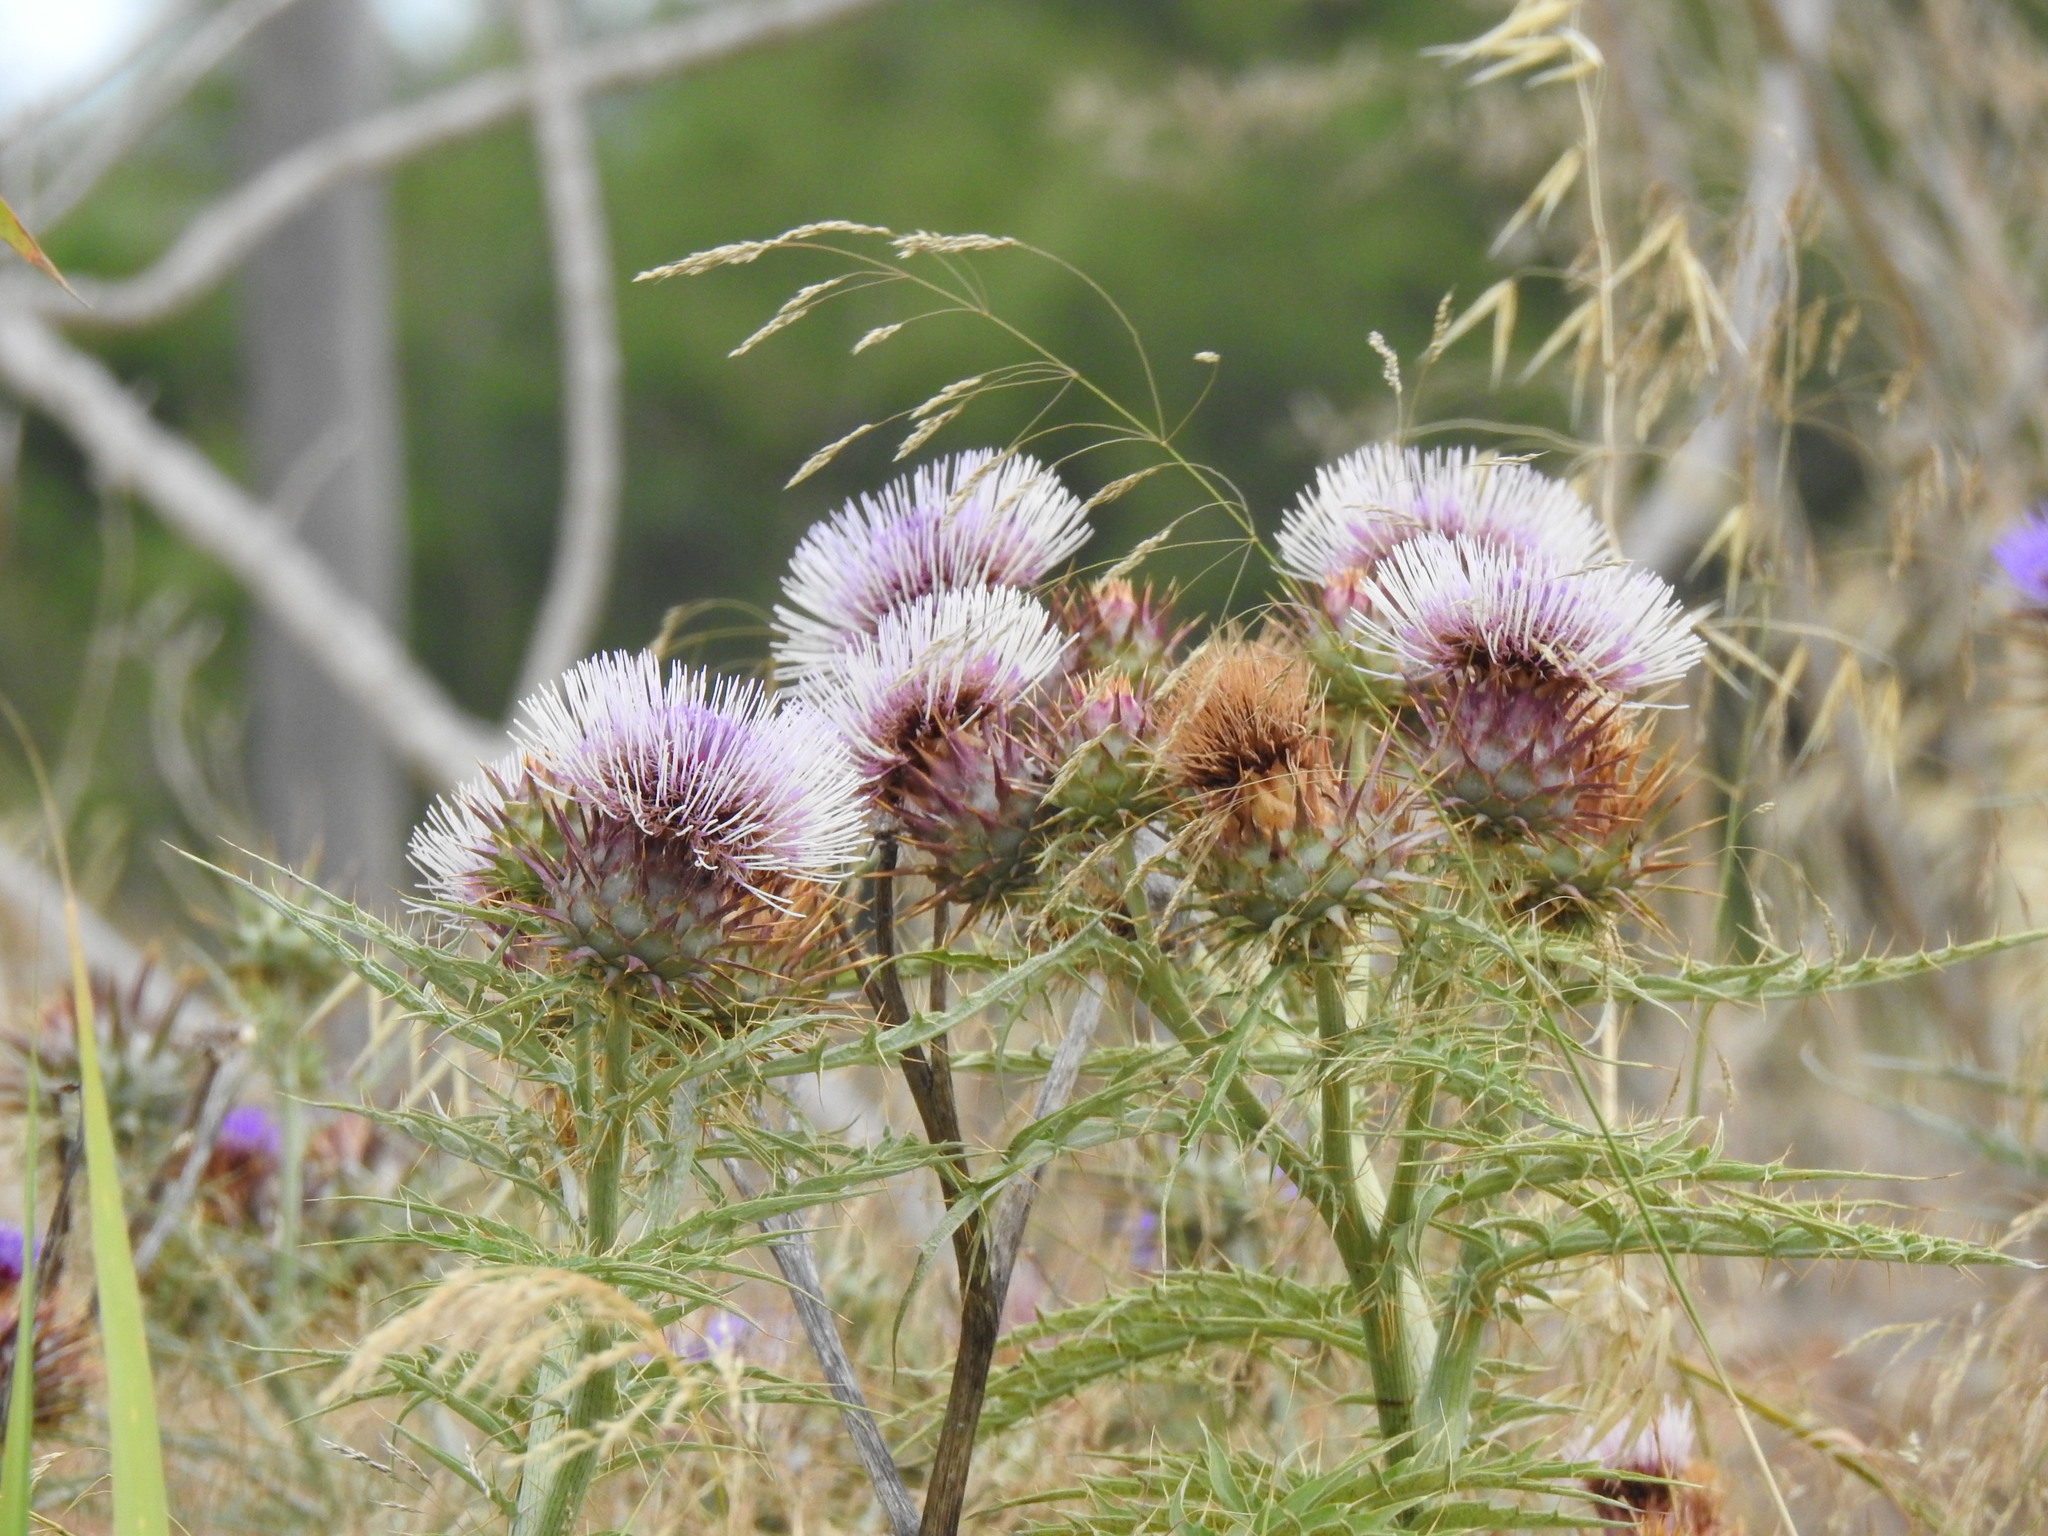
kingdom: Plantae
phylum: Tracheophyta
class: Magnoliopsida
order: Asterales
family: Asteraceae
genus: Cynara
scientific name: Cynara cardunculus
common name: Globe artichoke
